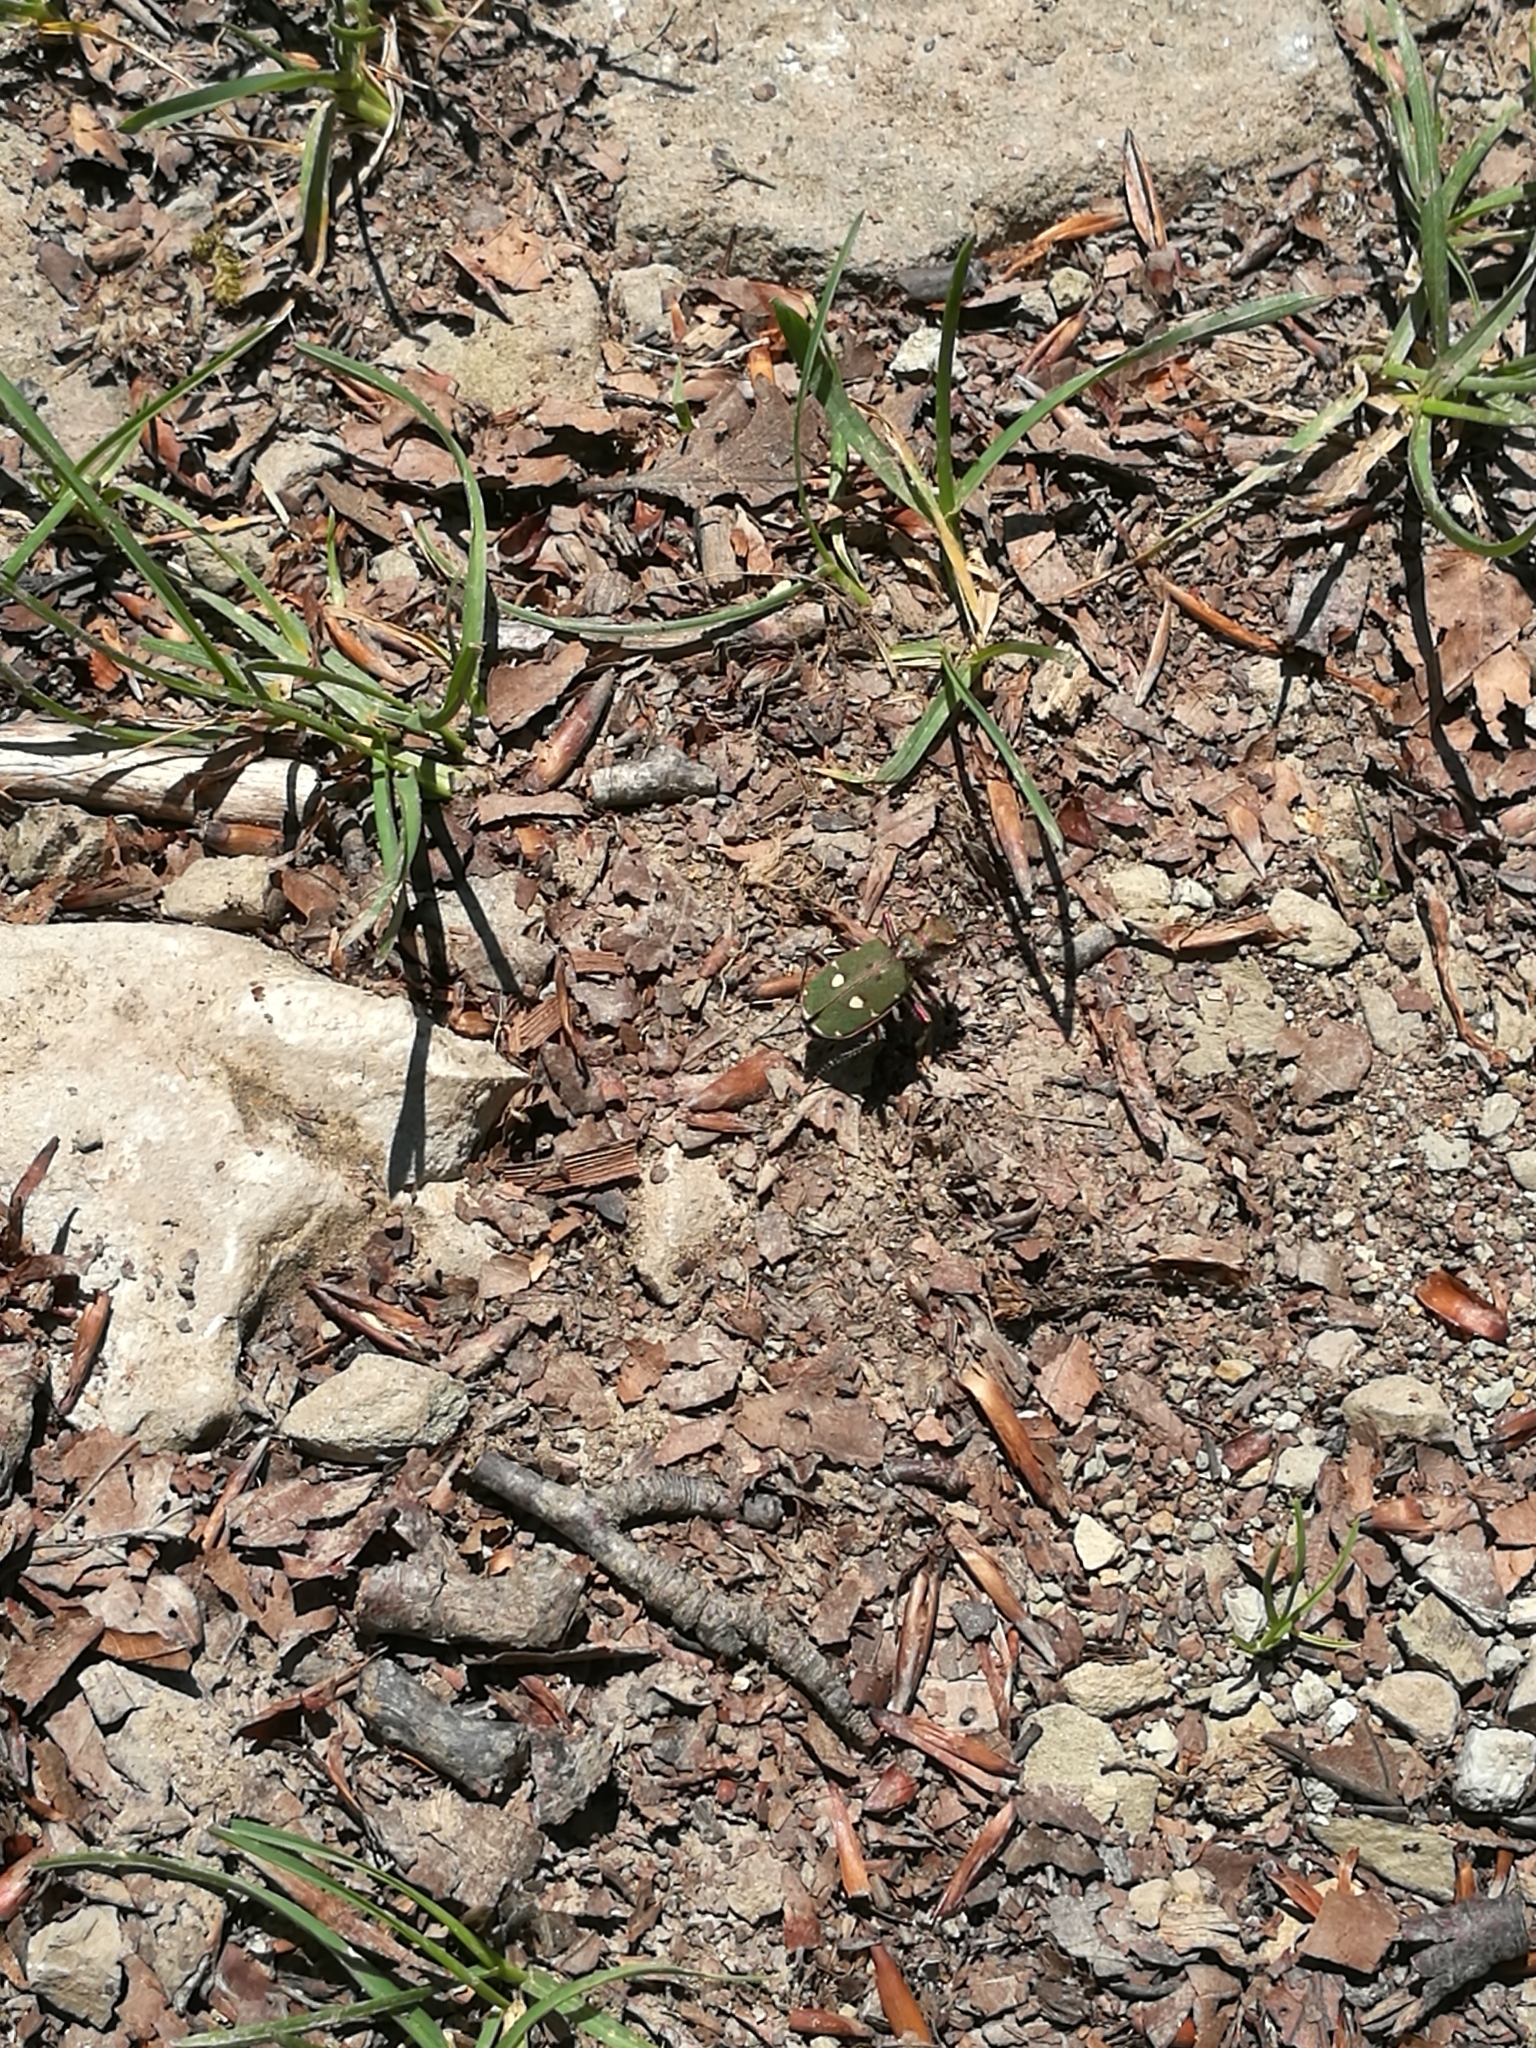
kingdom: Animalia
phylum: Arthropoda
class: Insecta
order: Coleoptera
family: Carabidae
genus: Cicindela
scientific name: Cicindela campestris
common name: Common tiger beetle
